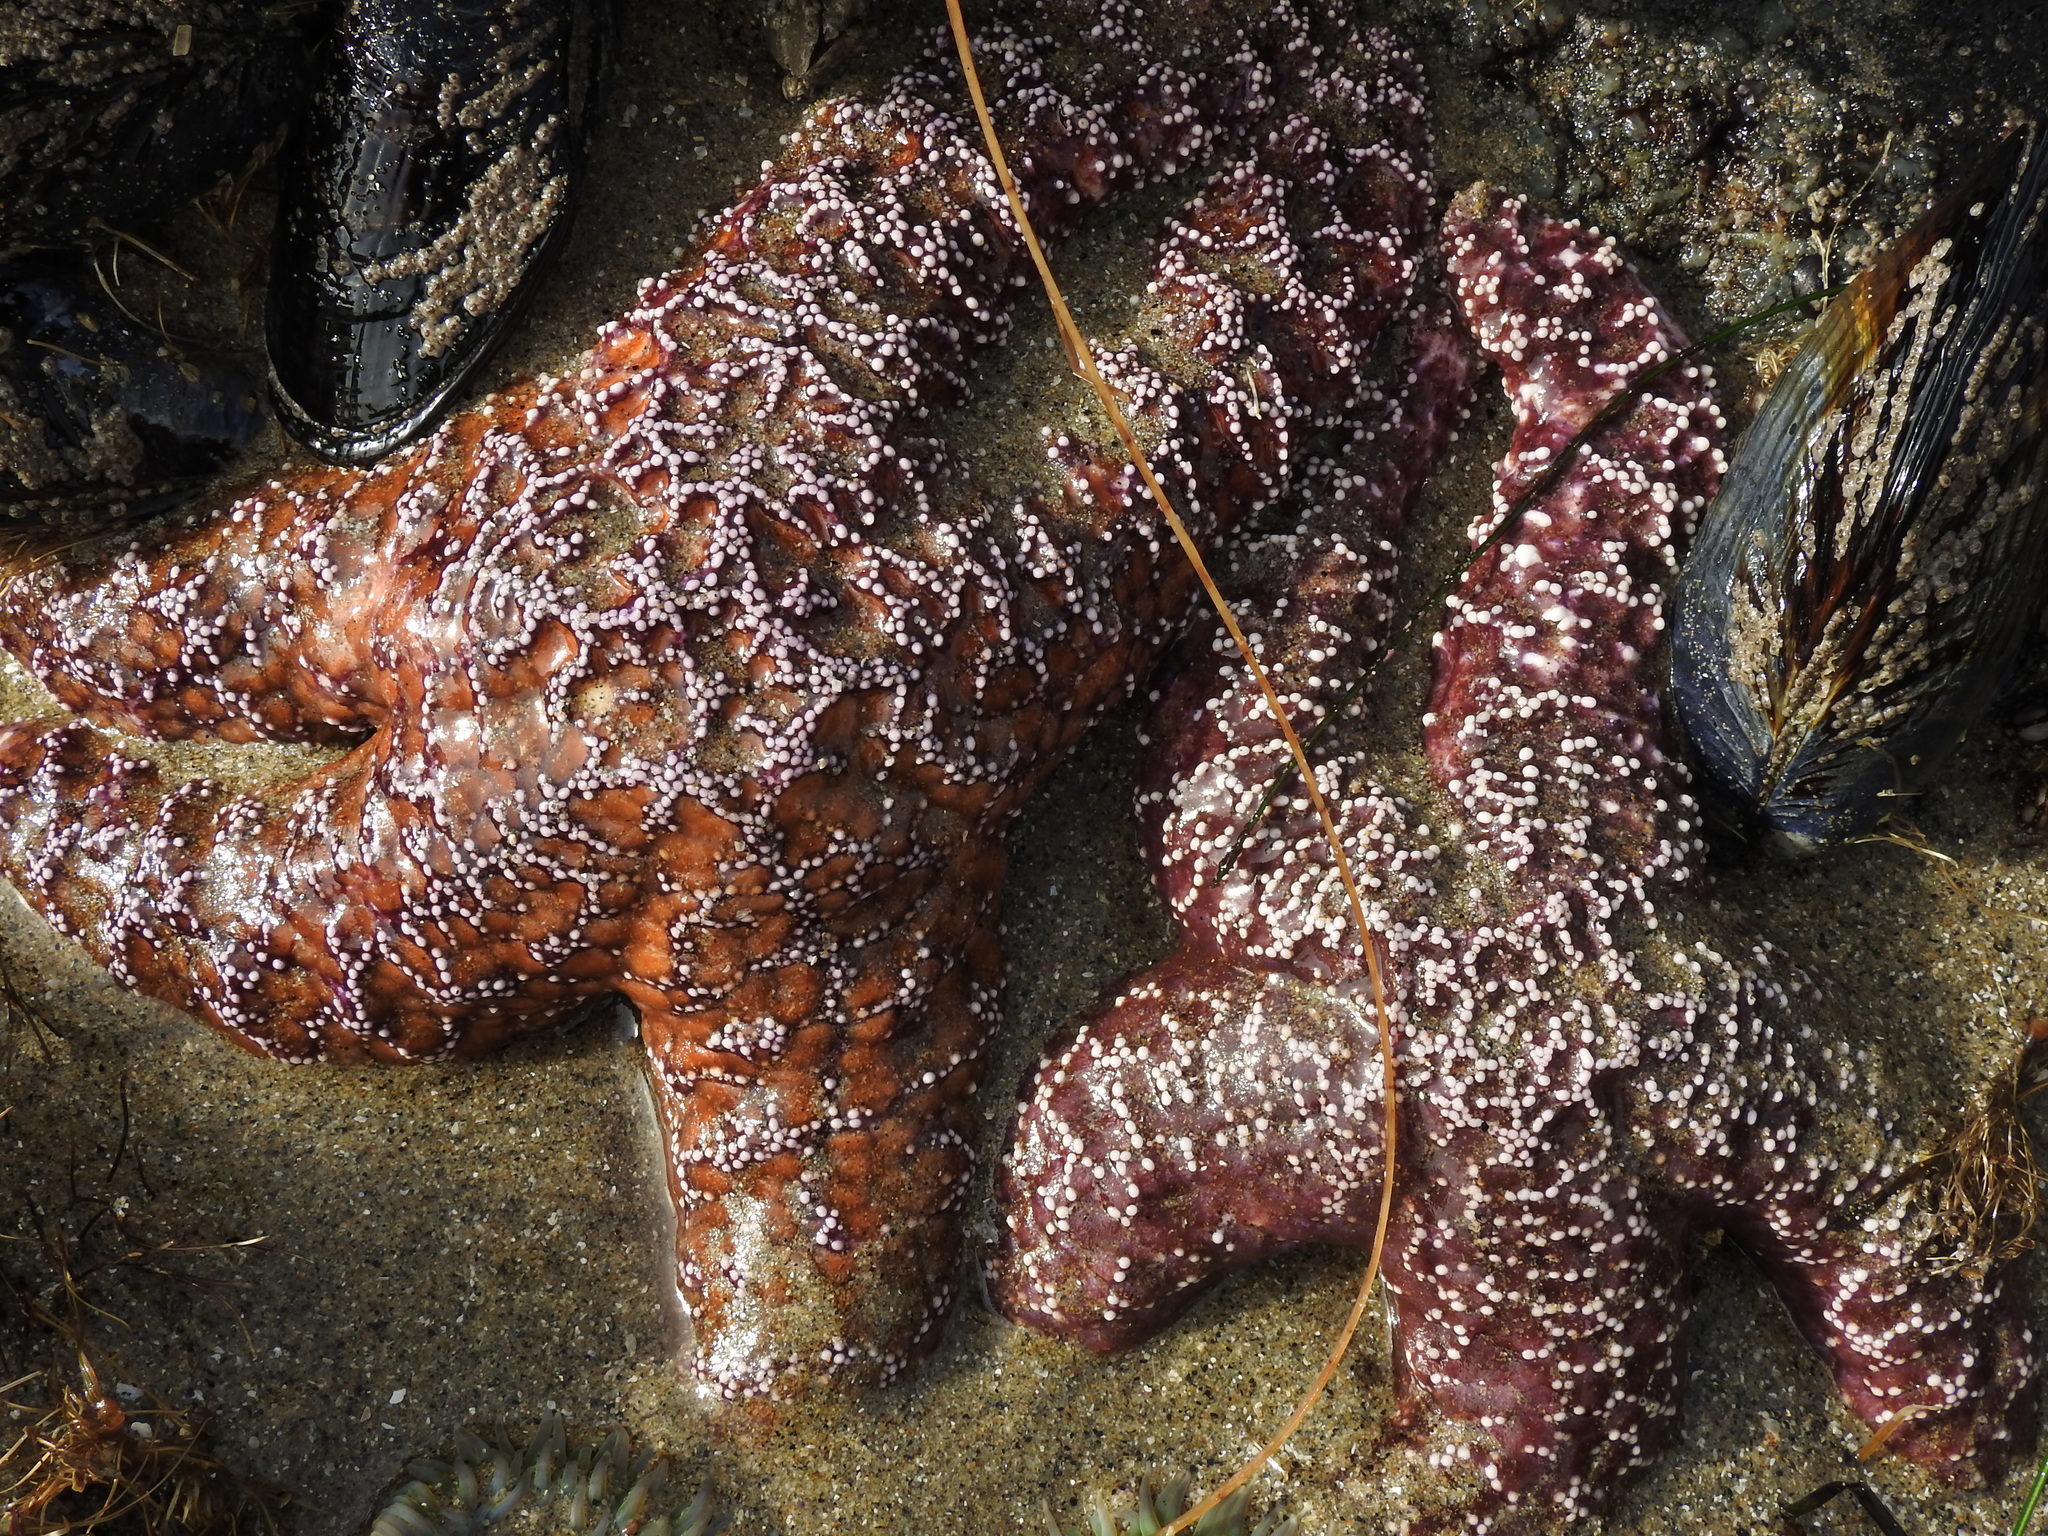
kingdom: Animalia
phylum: Echinodermata
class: Asteroidea
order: Forcipulatida
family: Asteriidae
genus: Pisaster
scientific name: Pisaster ochraceus
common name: Ochre stars
